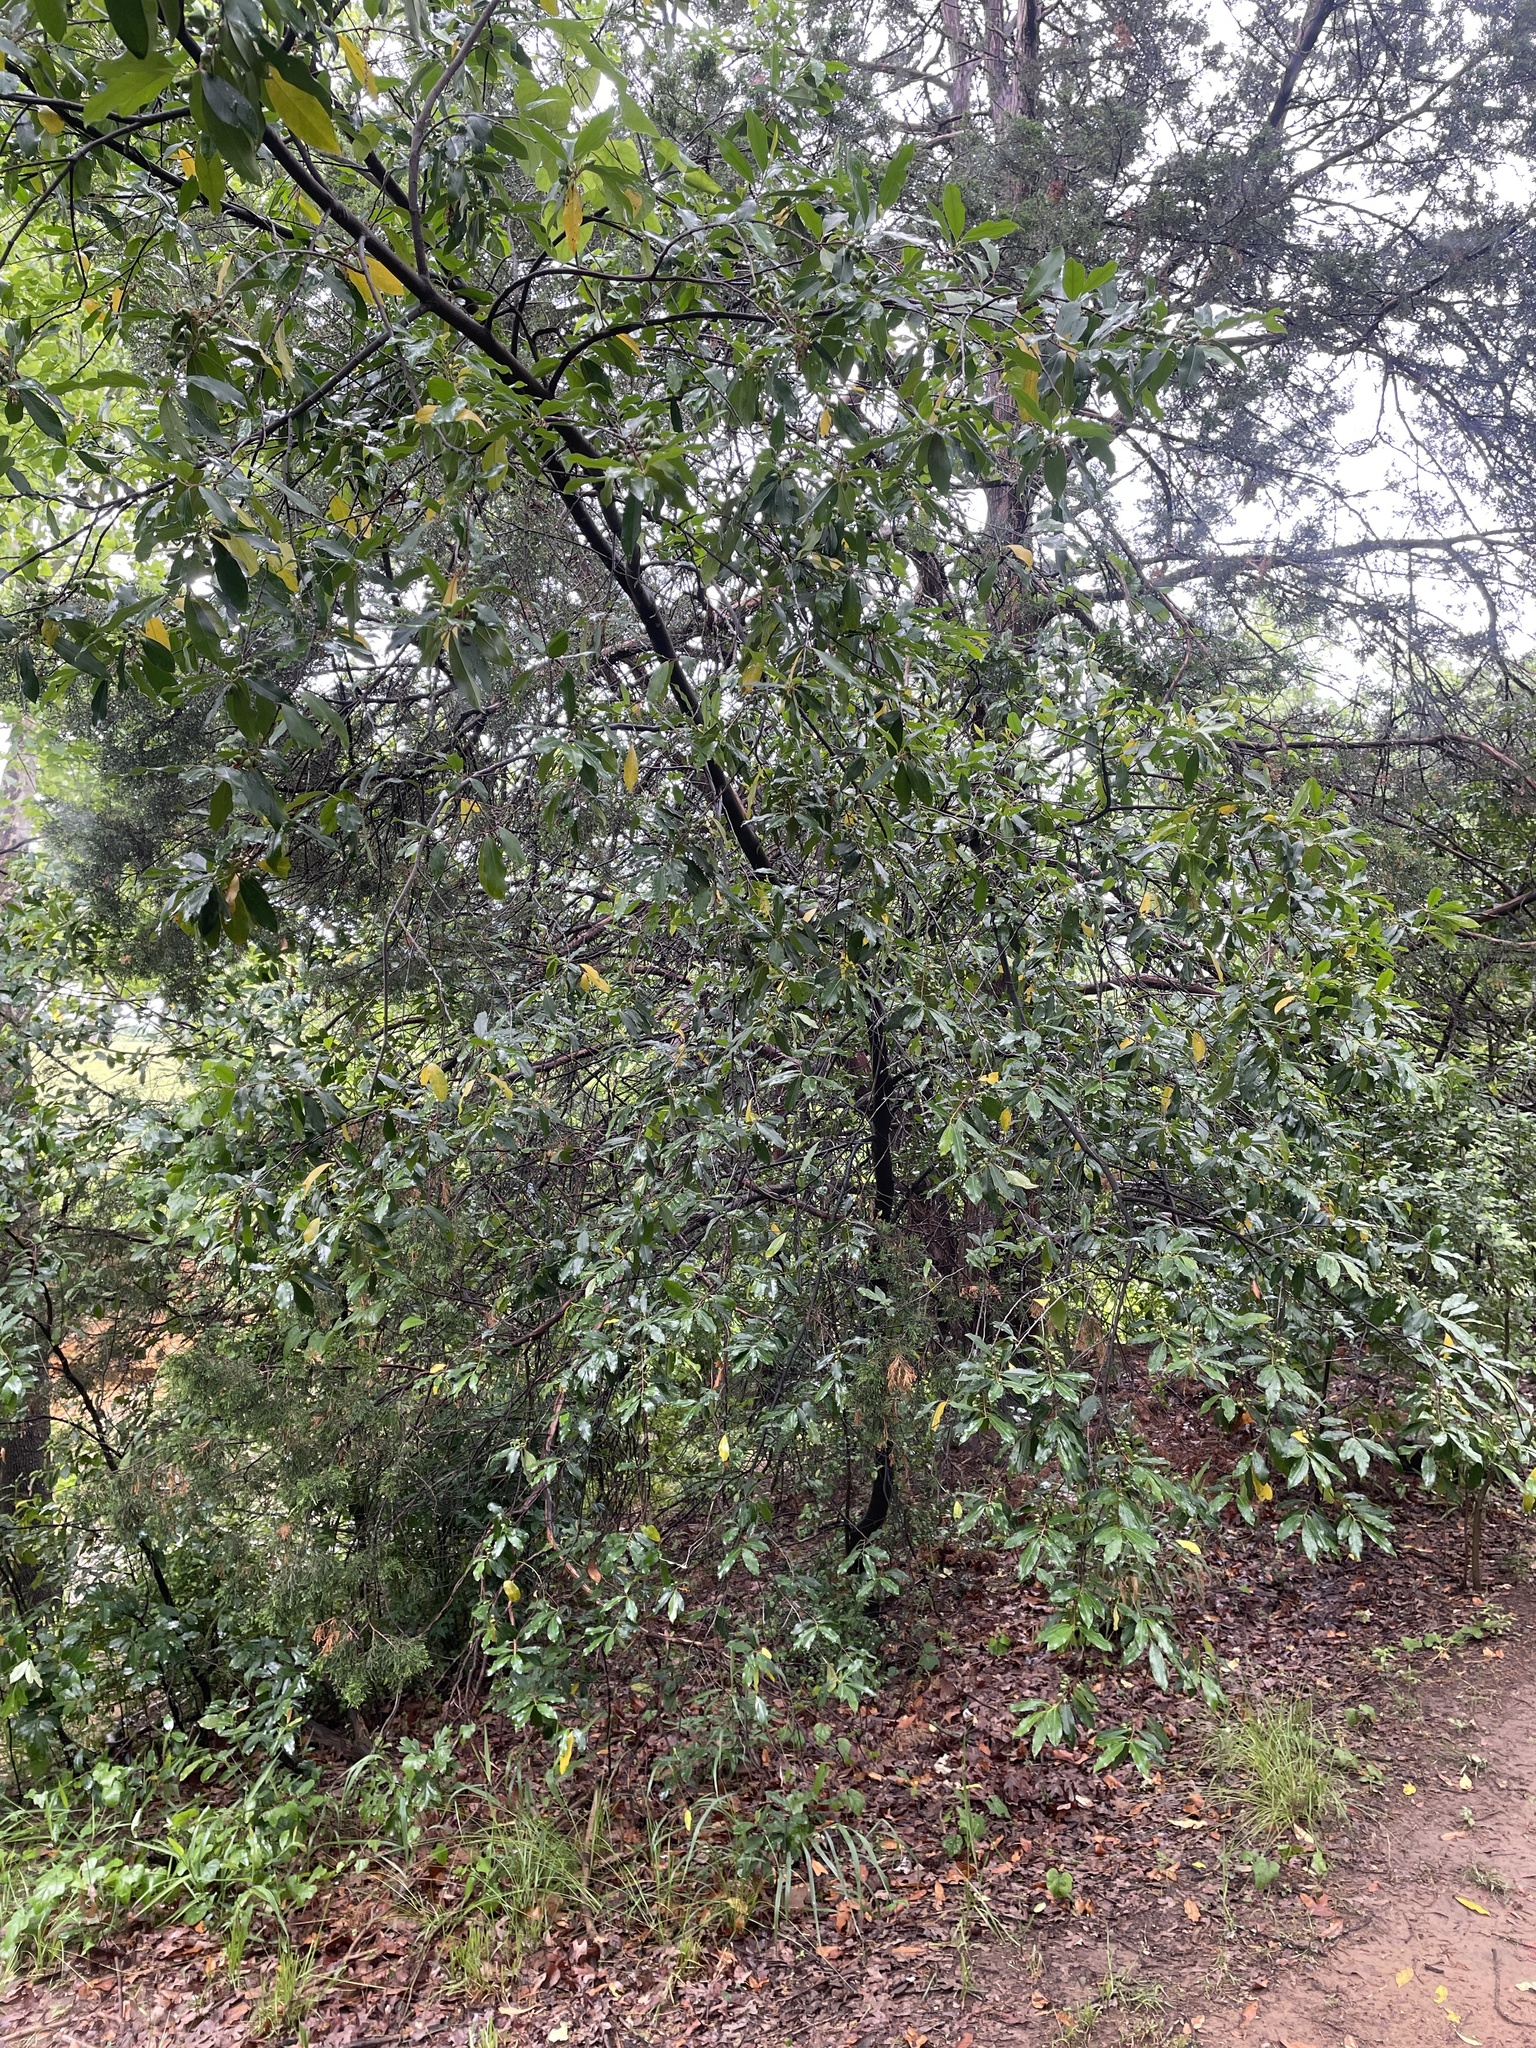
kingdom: Plantae
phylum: Tracheophyta
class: Magnoliopsida
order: Rosales
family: Rosaceae
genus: Prunus
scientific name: Prunus caroliniana
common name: Carolina laurel cherry
